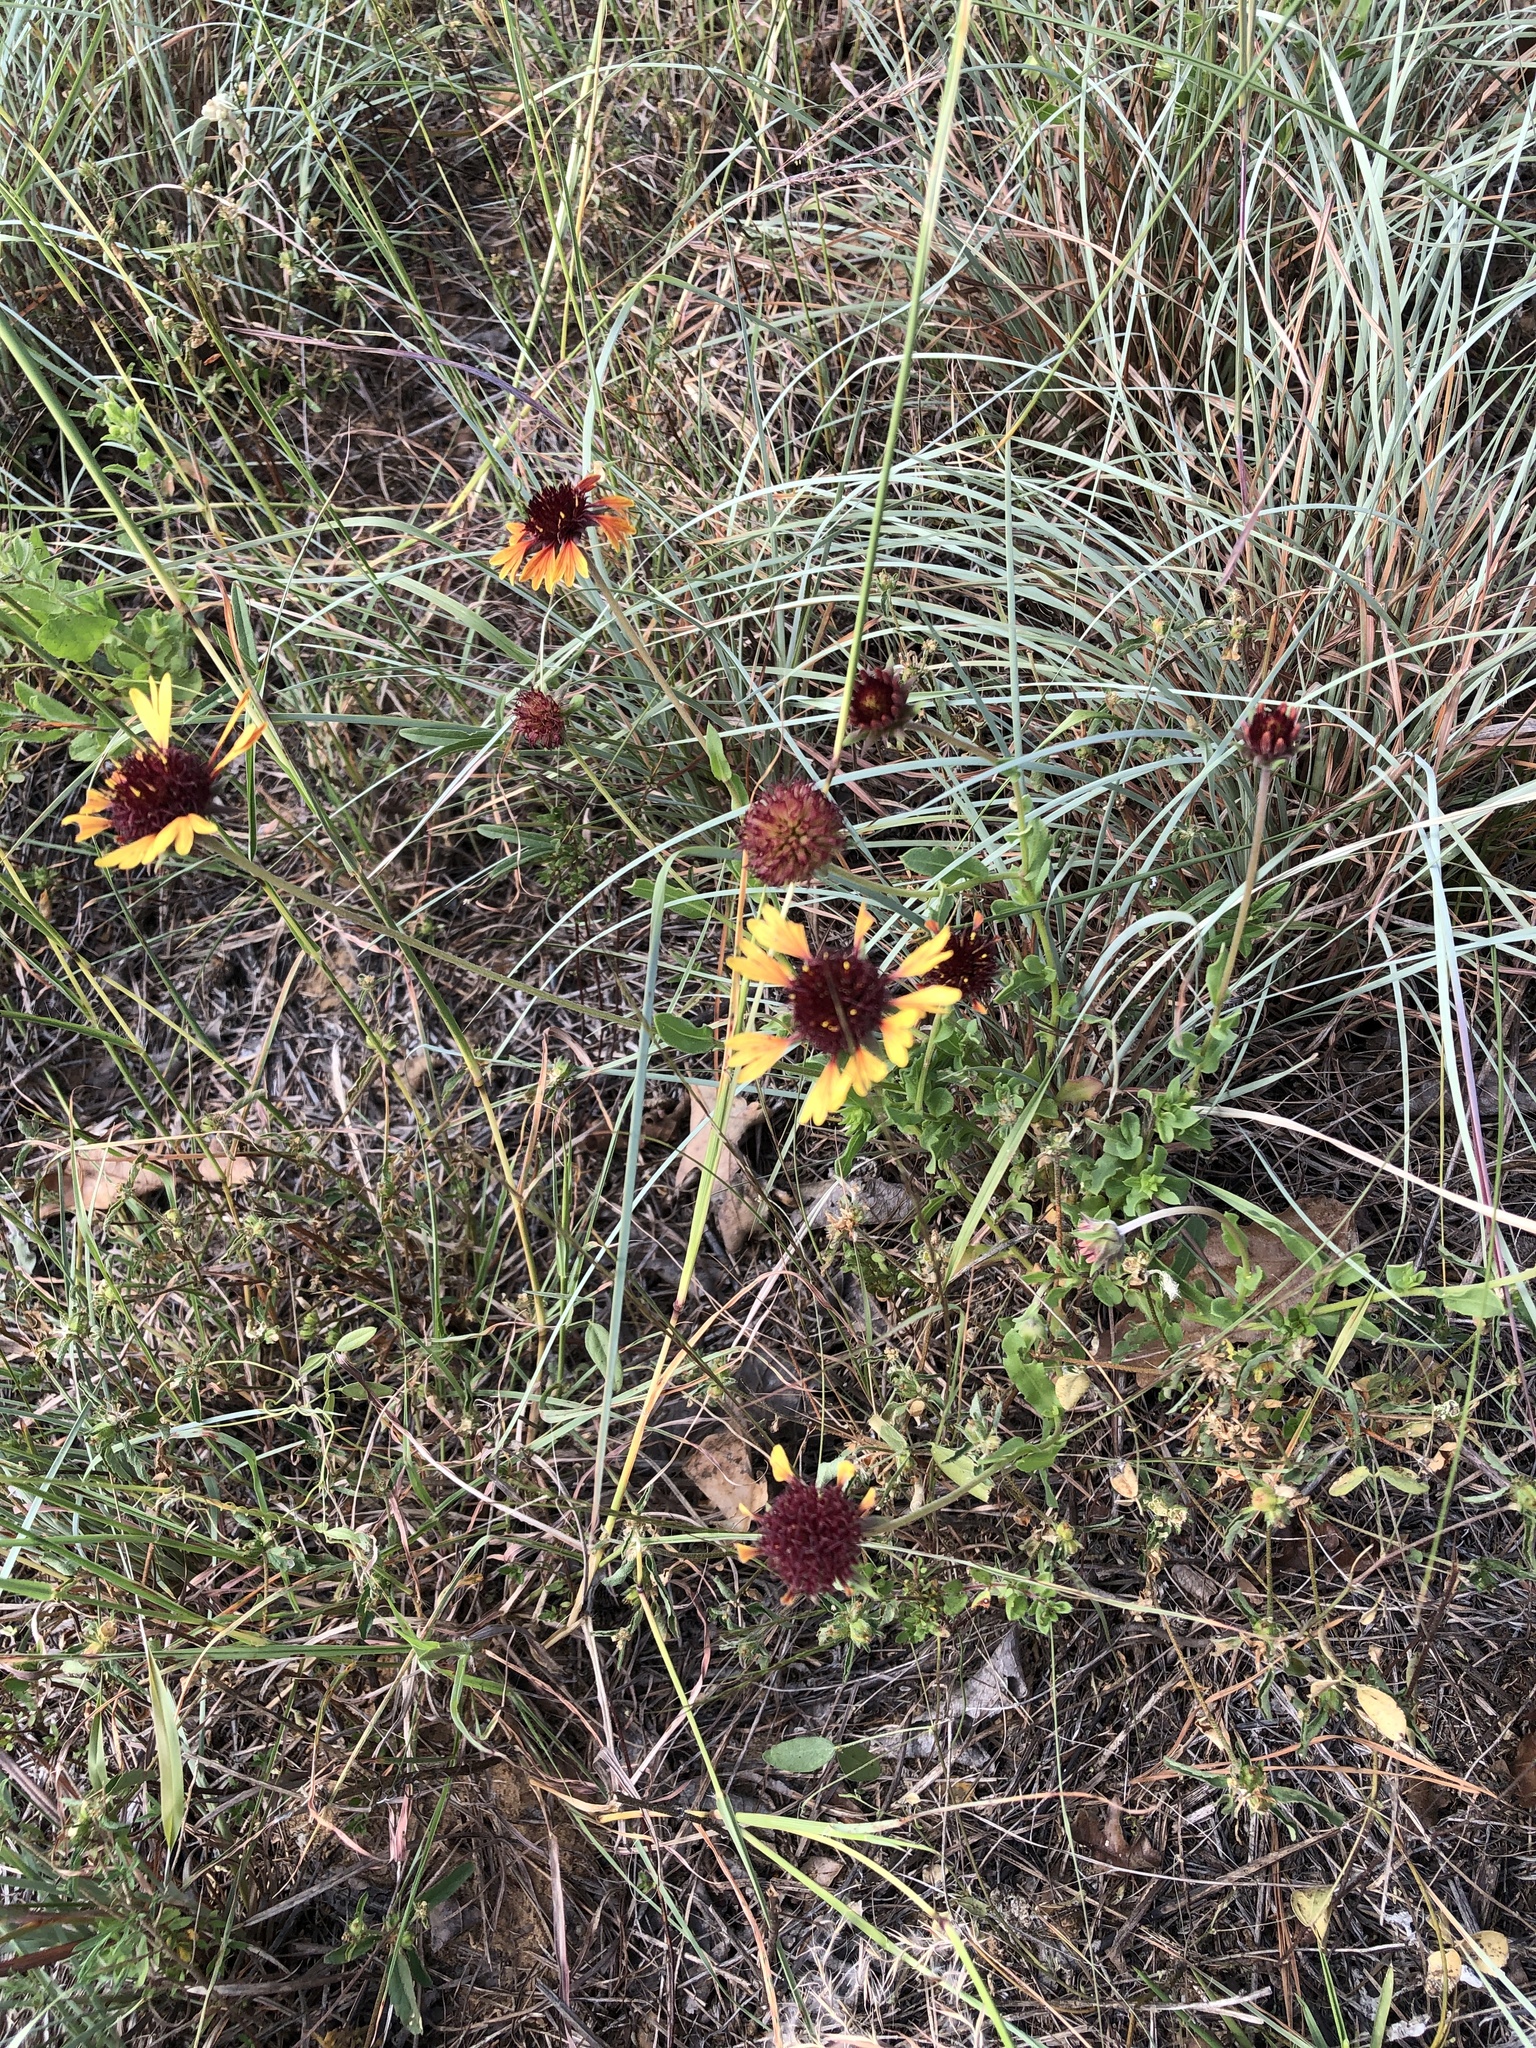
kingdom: Plantae
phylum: Tracheophyta
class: Magnoliopsida
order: Asterales
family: Asteraceae
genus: Gaillardia
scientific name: Gaillardia aestivalis
